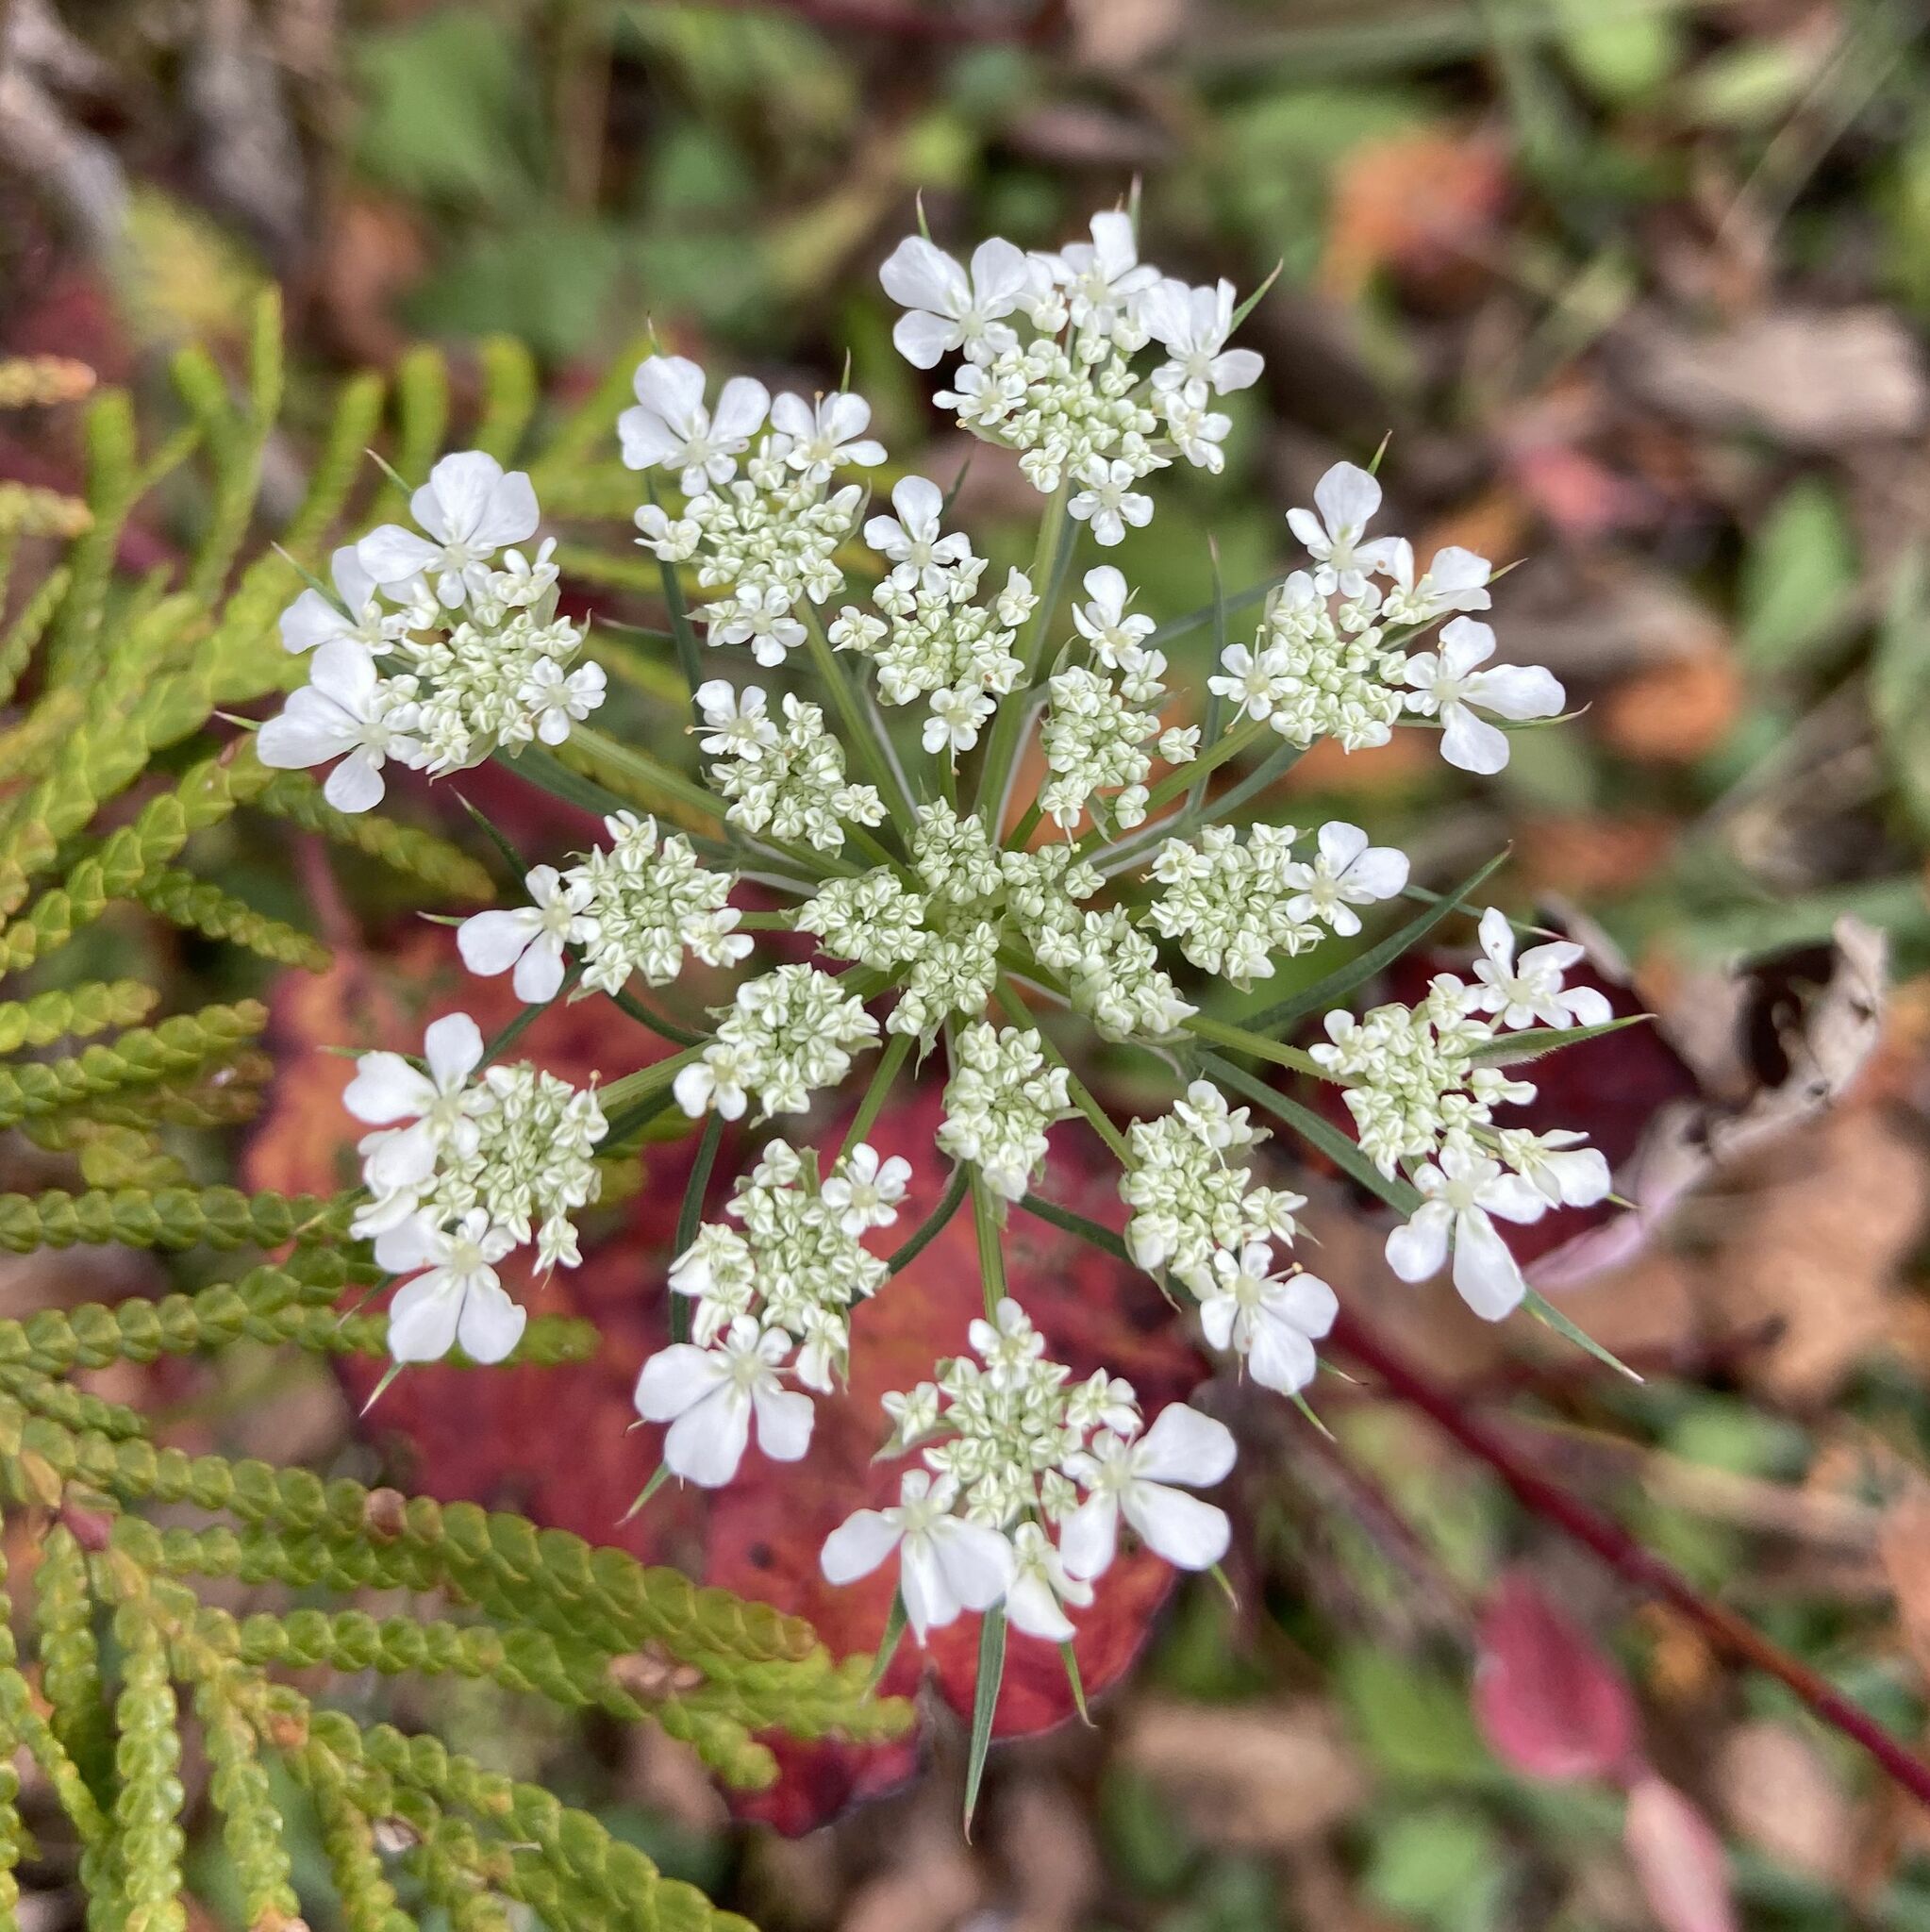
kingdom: Plantae
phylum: Tracheophyta
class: Magnoliopsida
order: Apiales
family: Apiaceae
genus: Daucus
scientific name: Daucus carota
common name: Wild carrot
